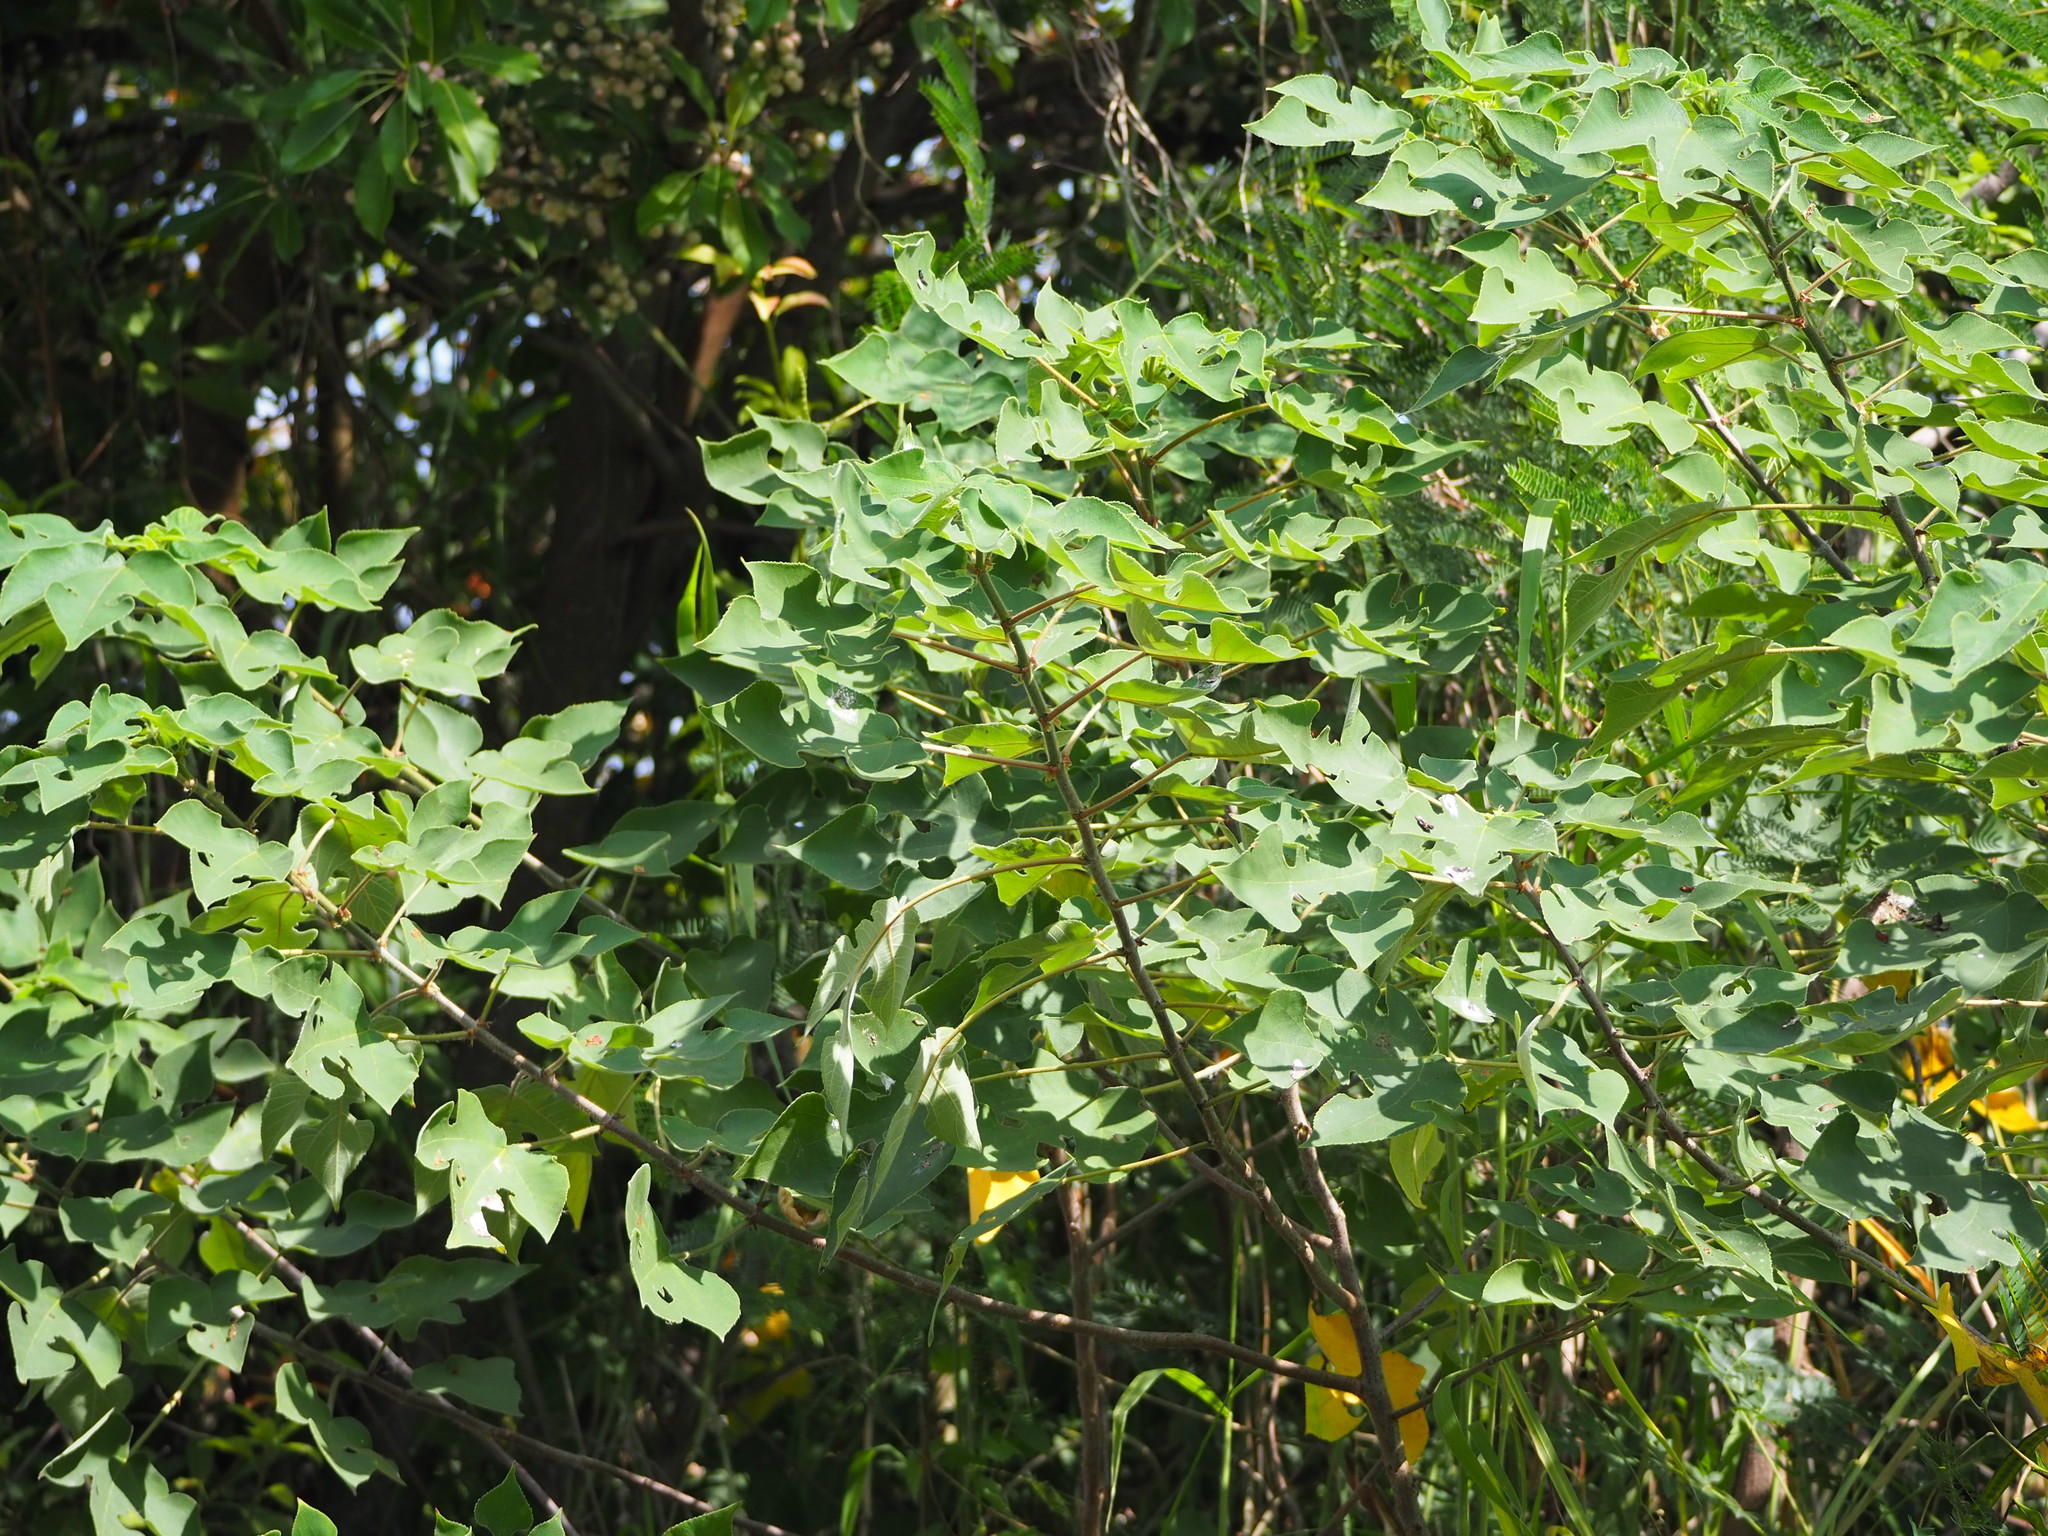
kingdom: Plantae
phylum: Tracheophyta
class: Magnoliopsida
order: Rosales
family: Moraceae
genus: Broussonetia
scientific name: Broussonetia papyrifera
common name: Paper mulberry
